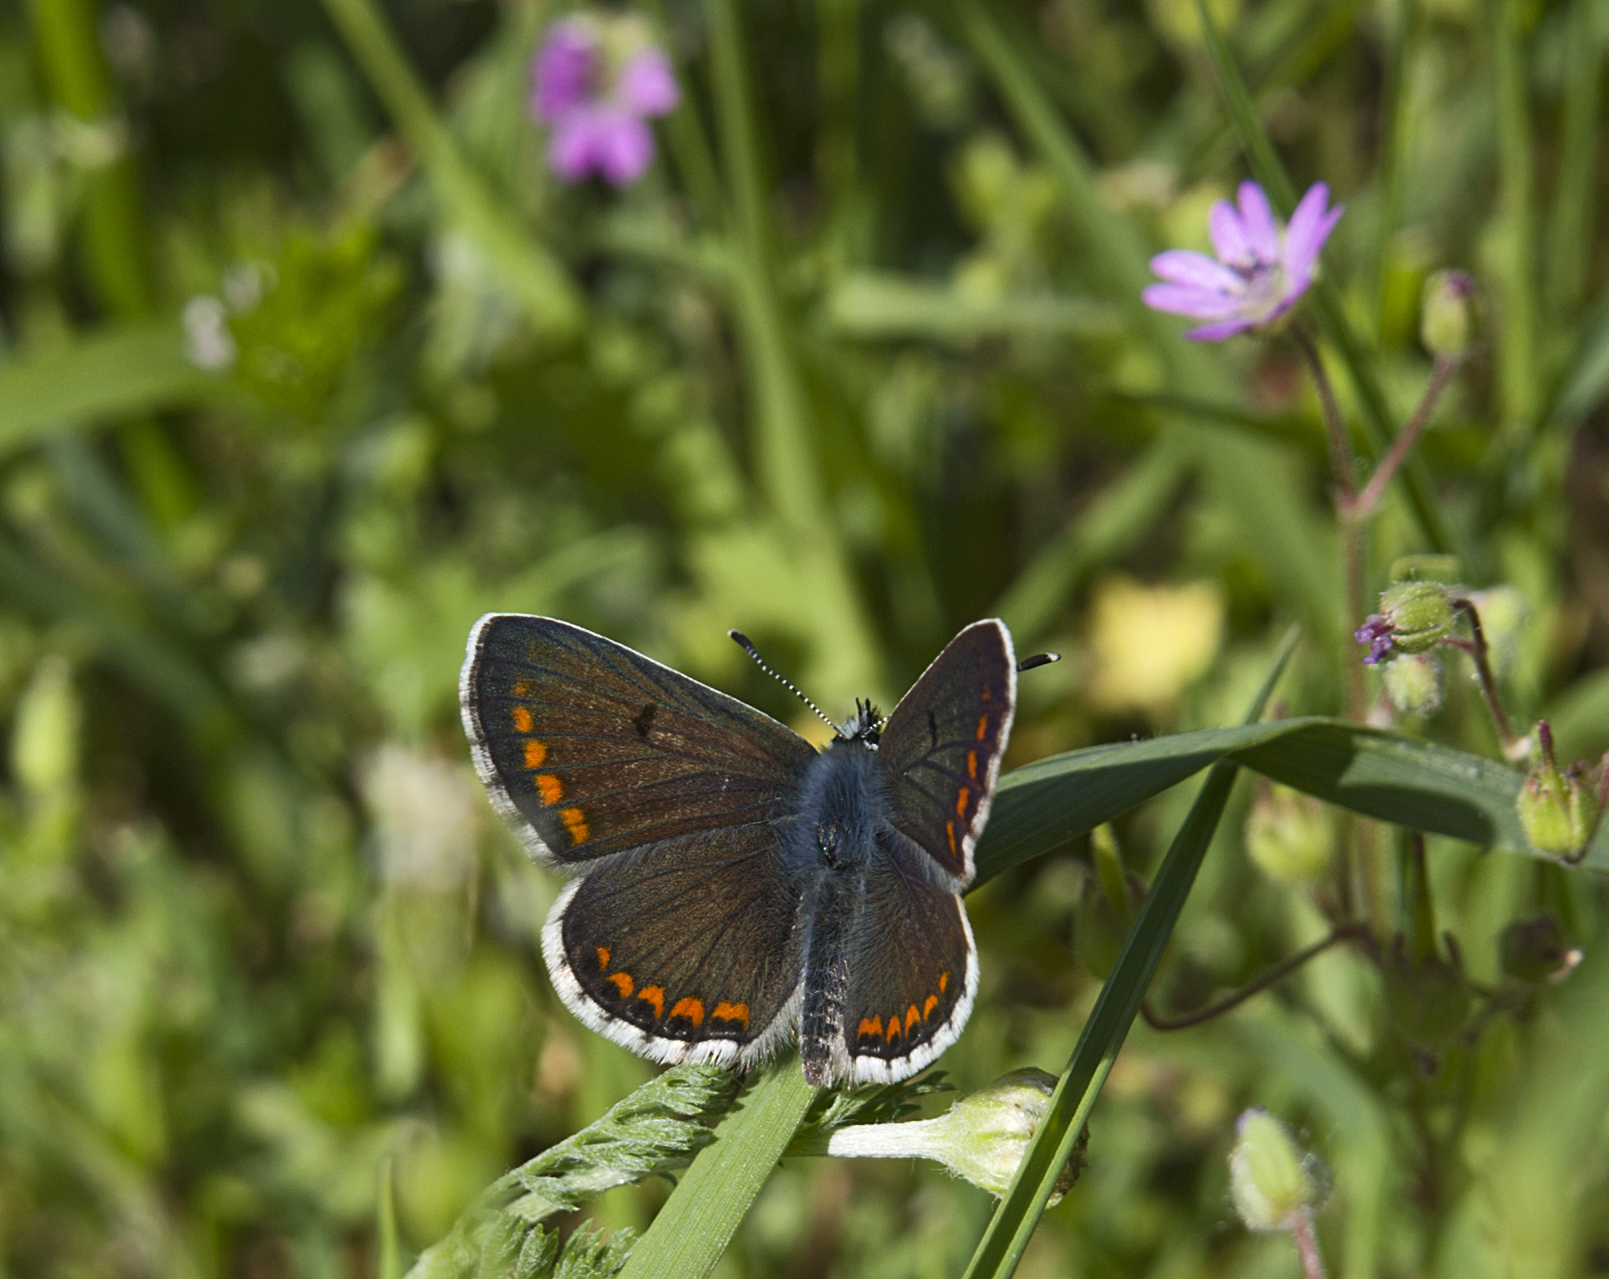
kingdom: Animalia
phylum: Arthropoda
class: Insecta
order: Lepidoptera
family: Lycaenidae
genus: Aricia
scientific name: Aricia agestis
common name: Brown argus
